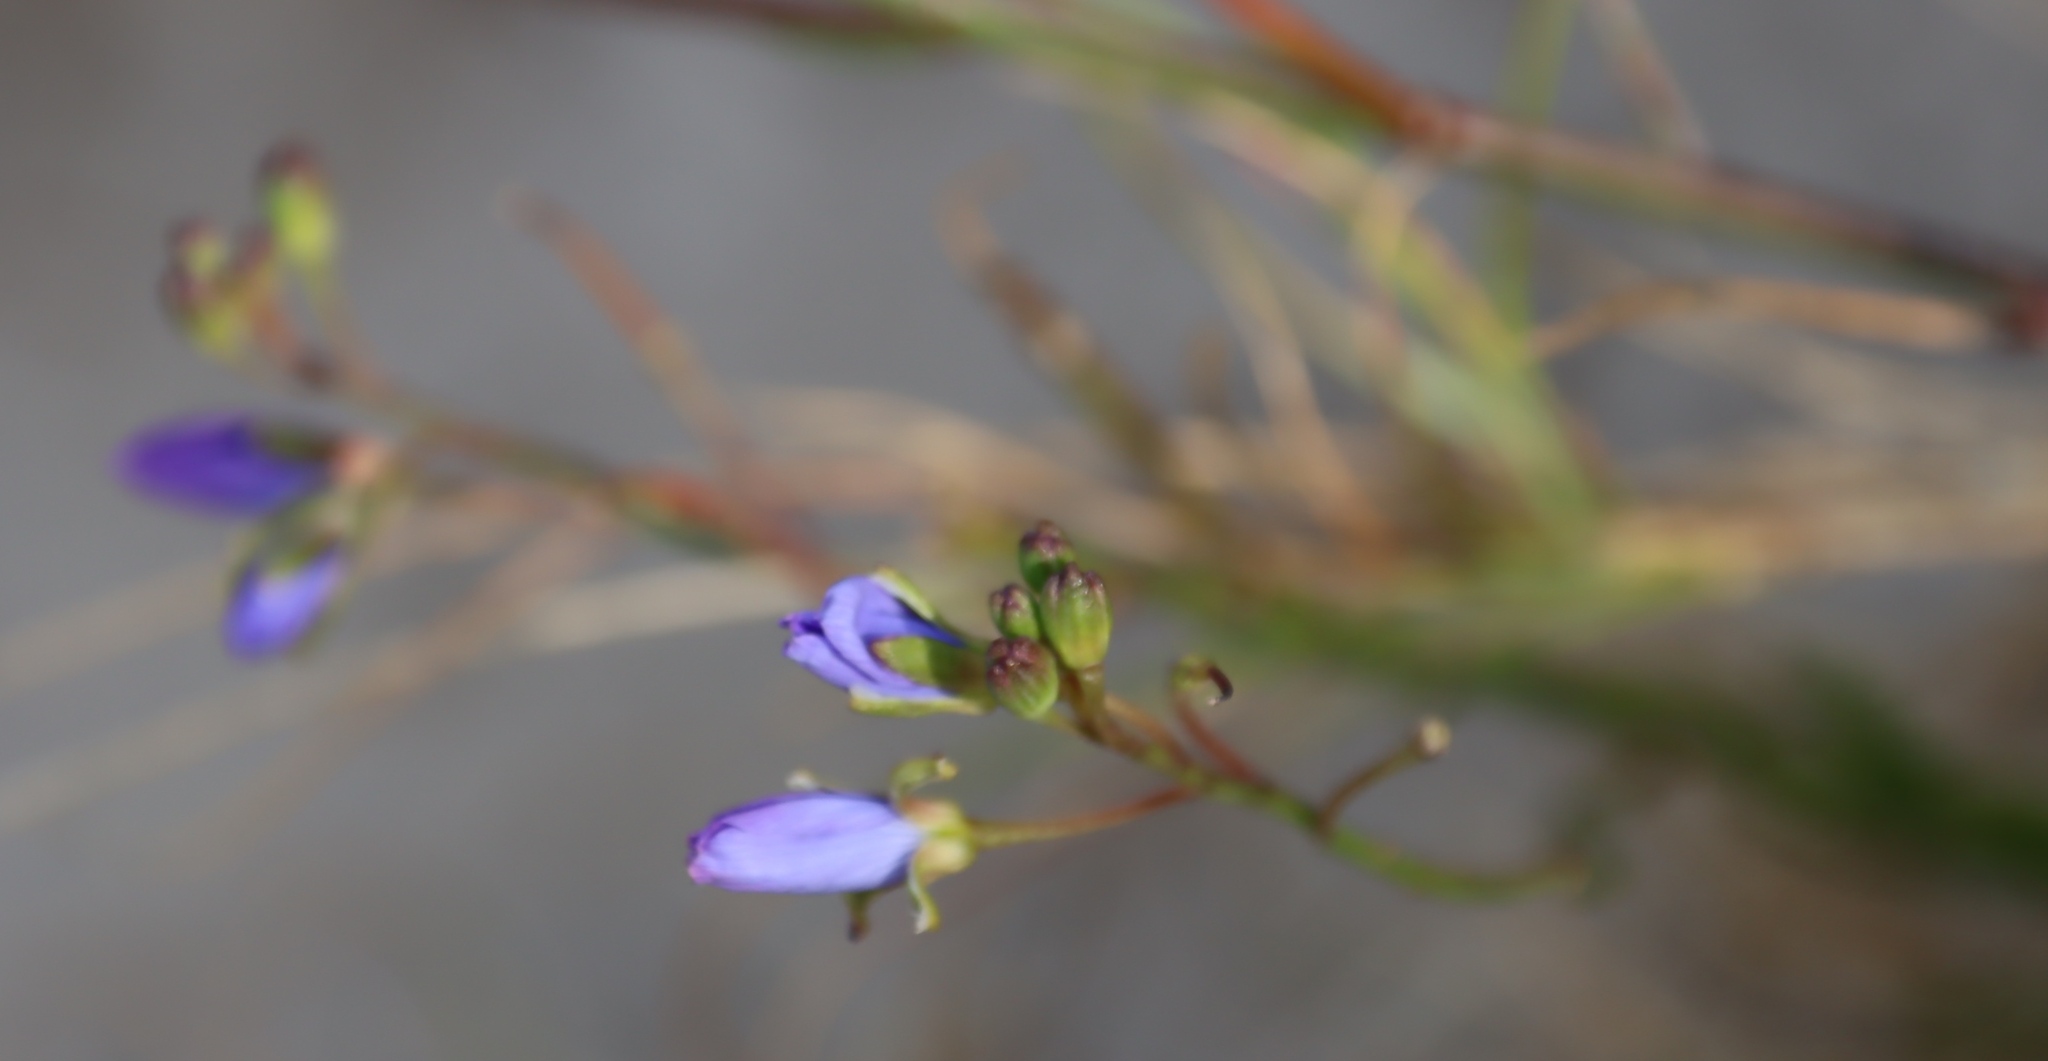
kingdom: Plantae
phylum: Tracheophyta
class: Magnoliopsida
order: Brassicales
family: Brassicaceae
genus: Heliophila
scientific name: Heliophila linearis
